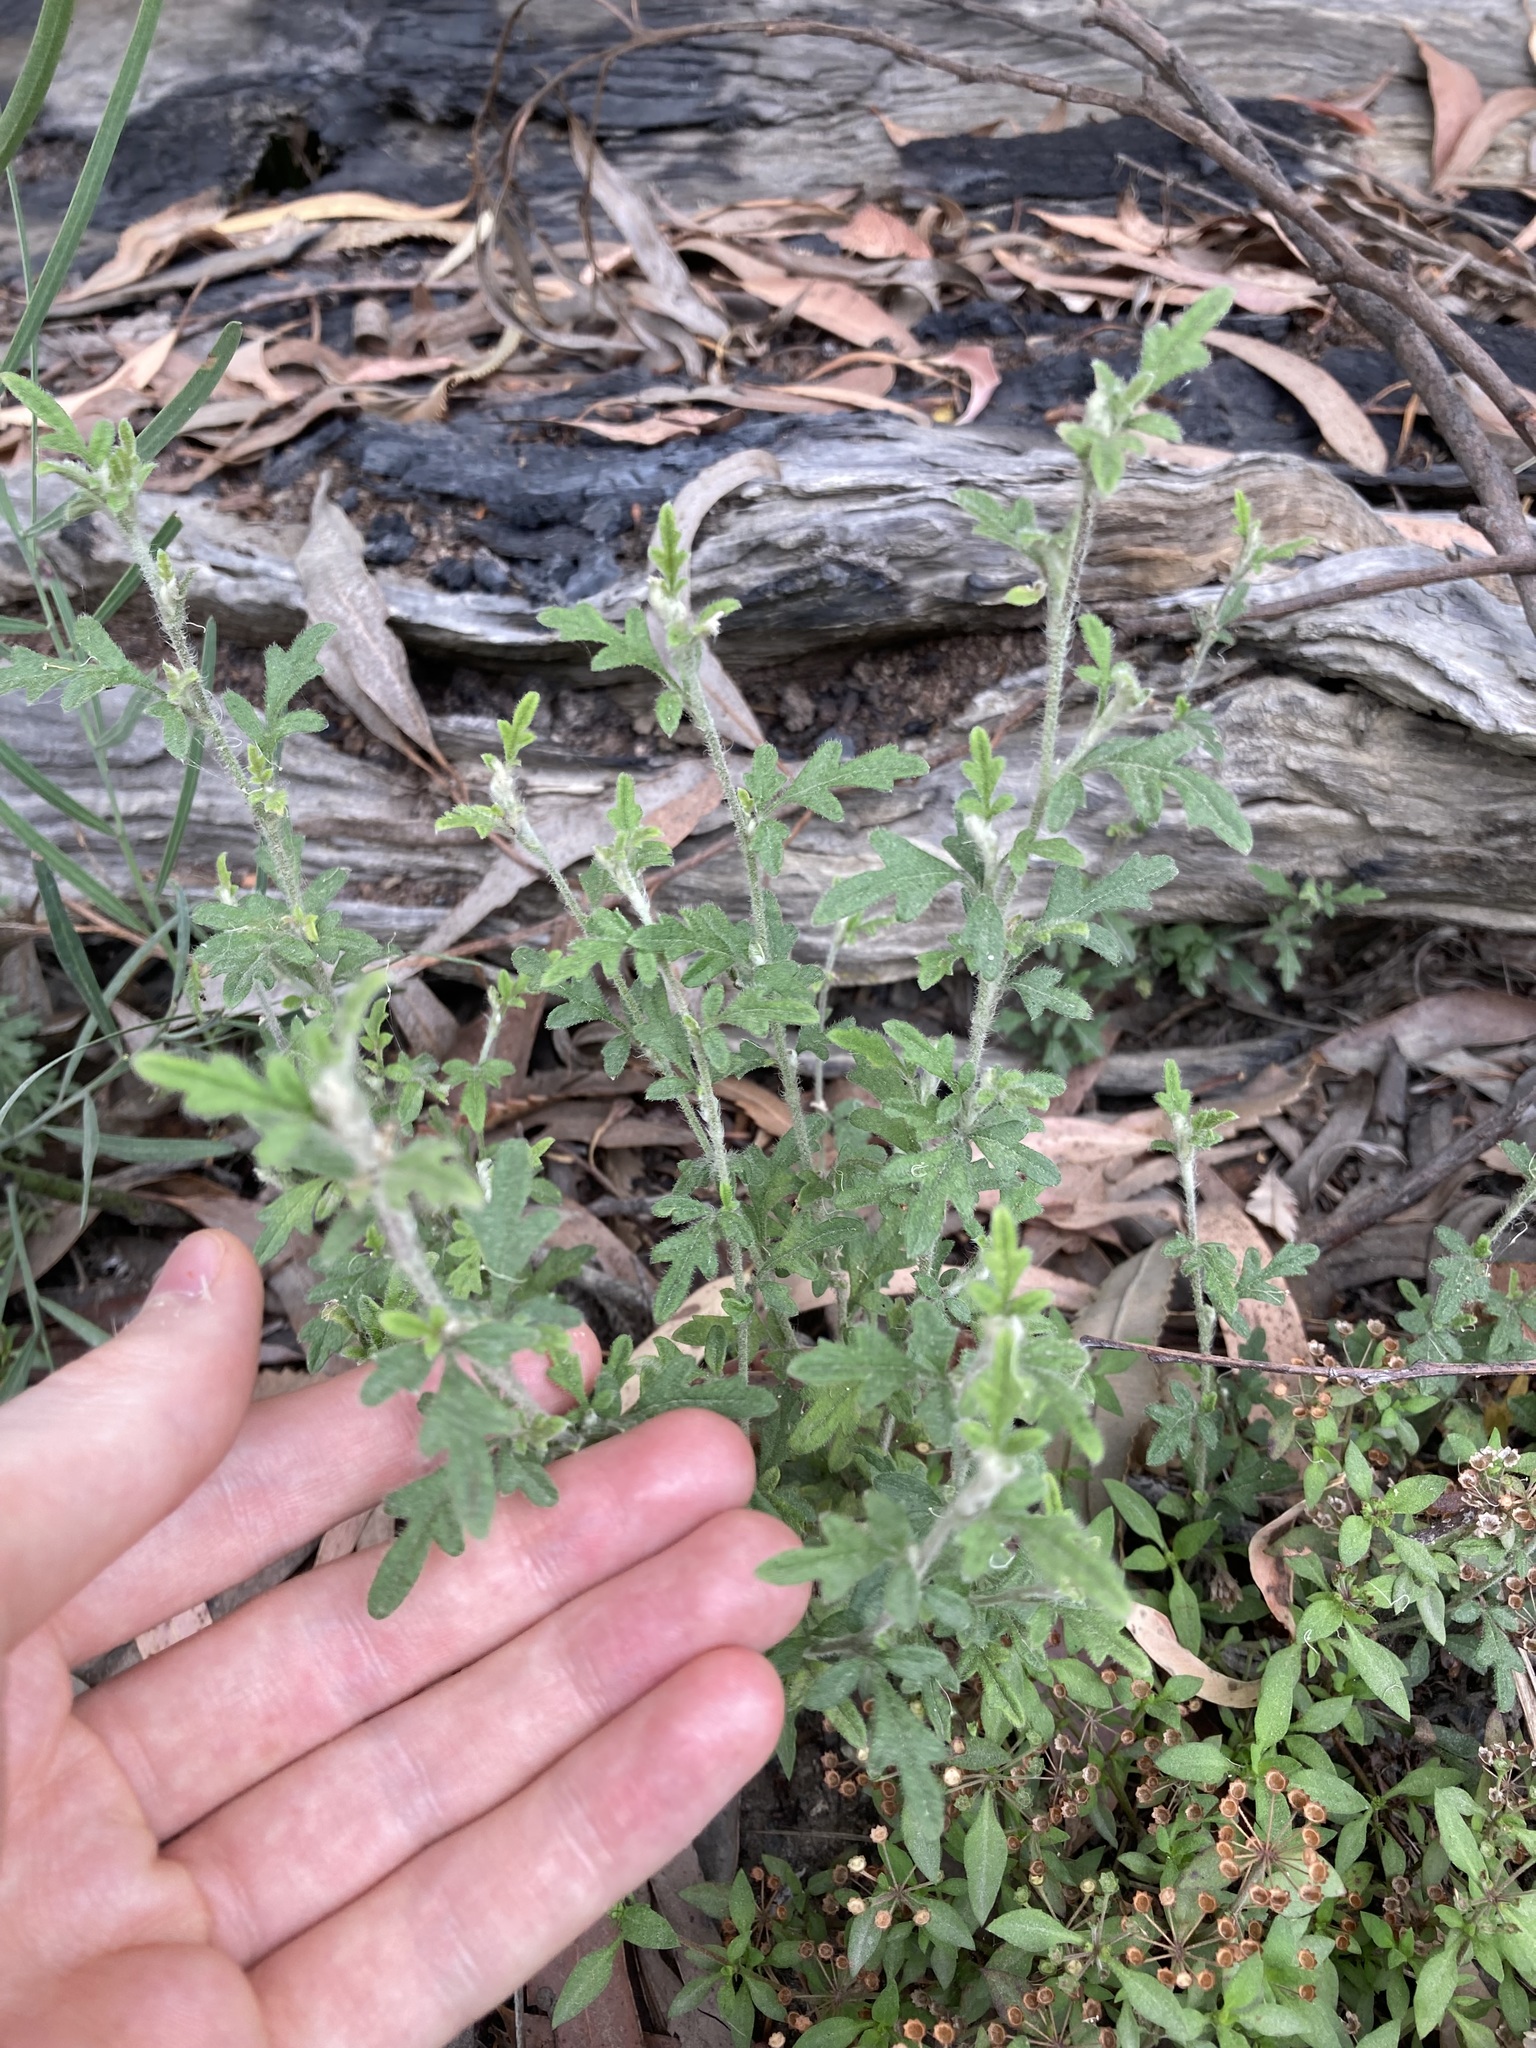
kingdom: Plantae
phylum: Tracheophyta
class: Magnoliopsida
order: Apiales
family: Apiaceae
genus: Xanthosia
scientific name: Xanthosia pilosa
